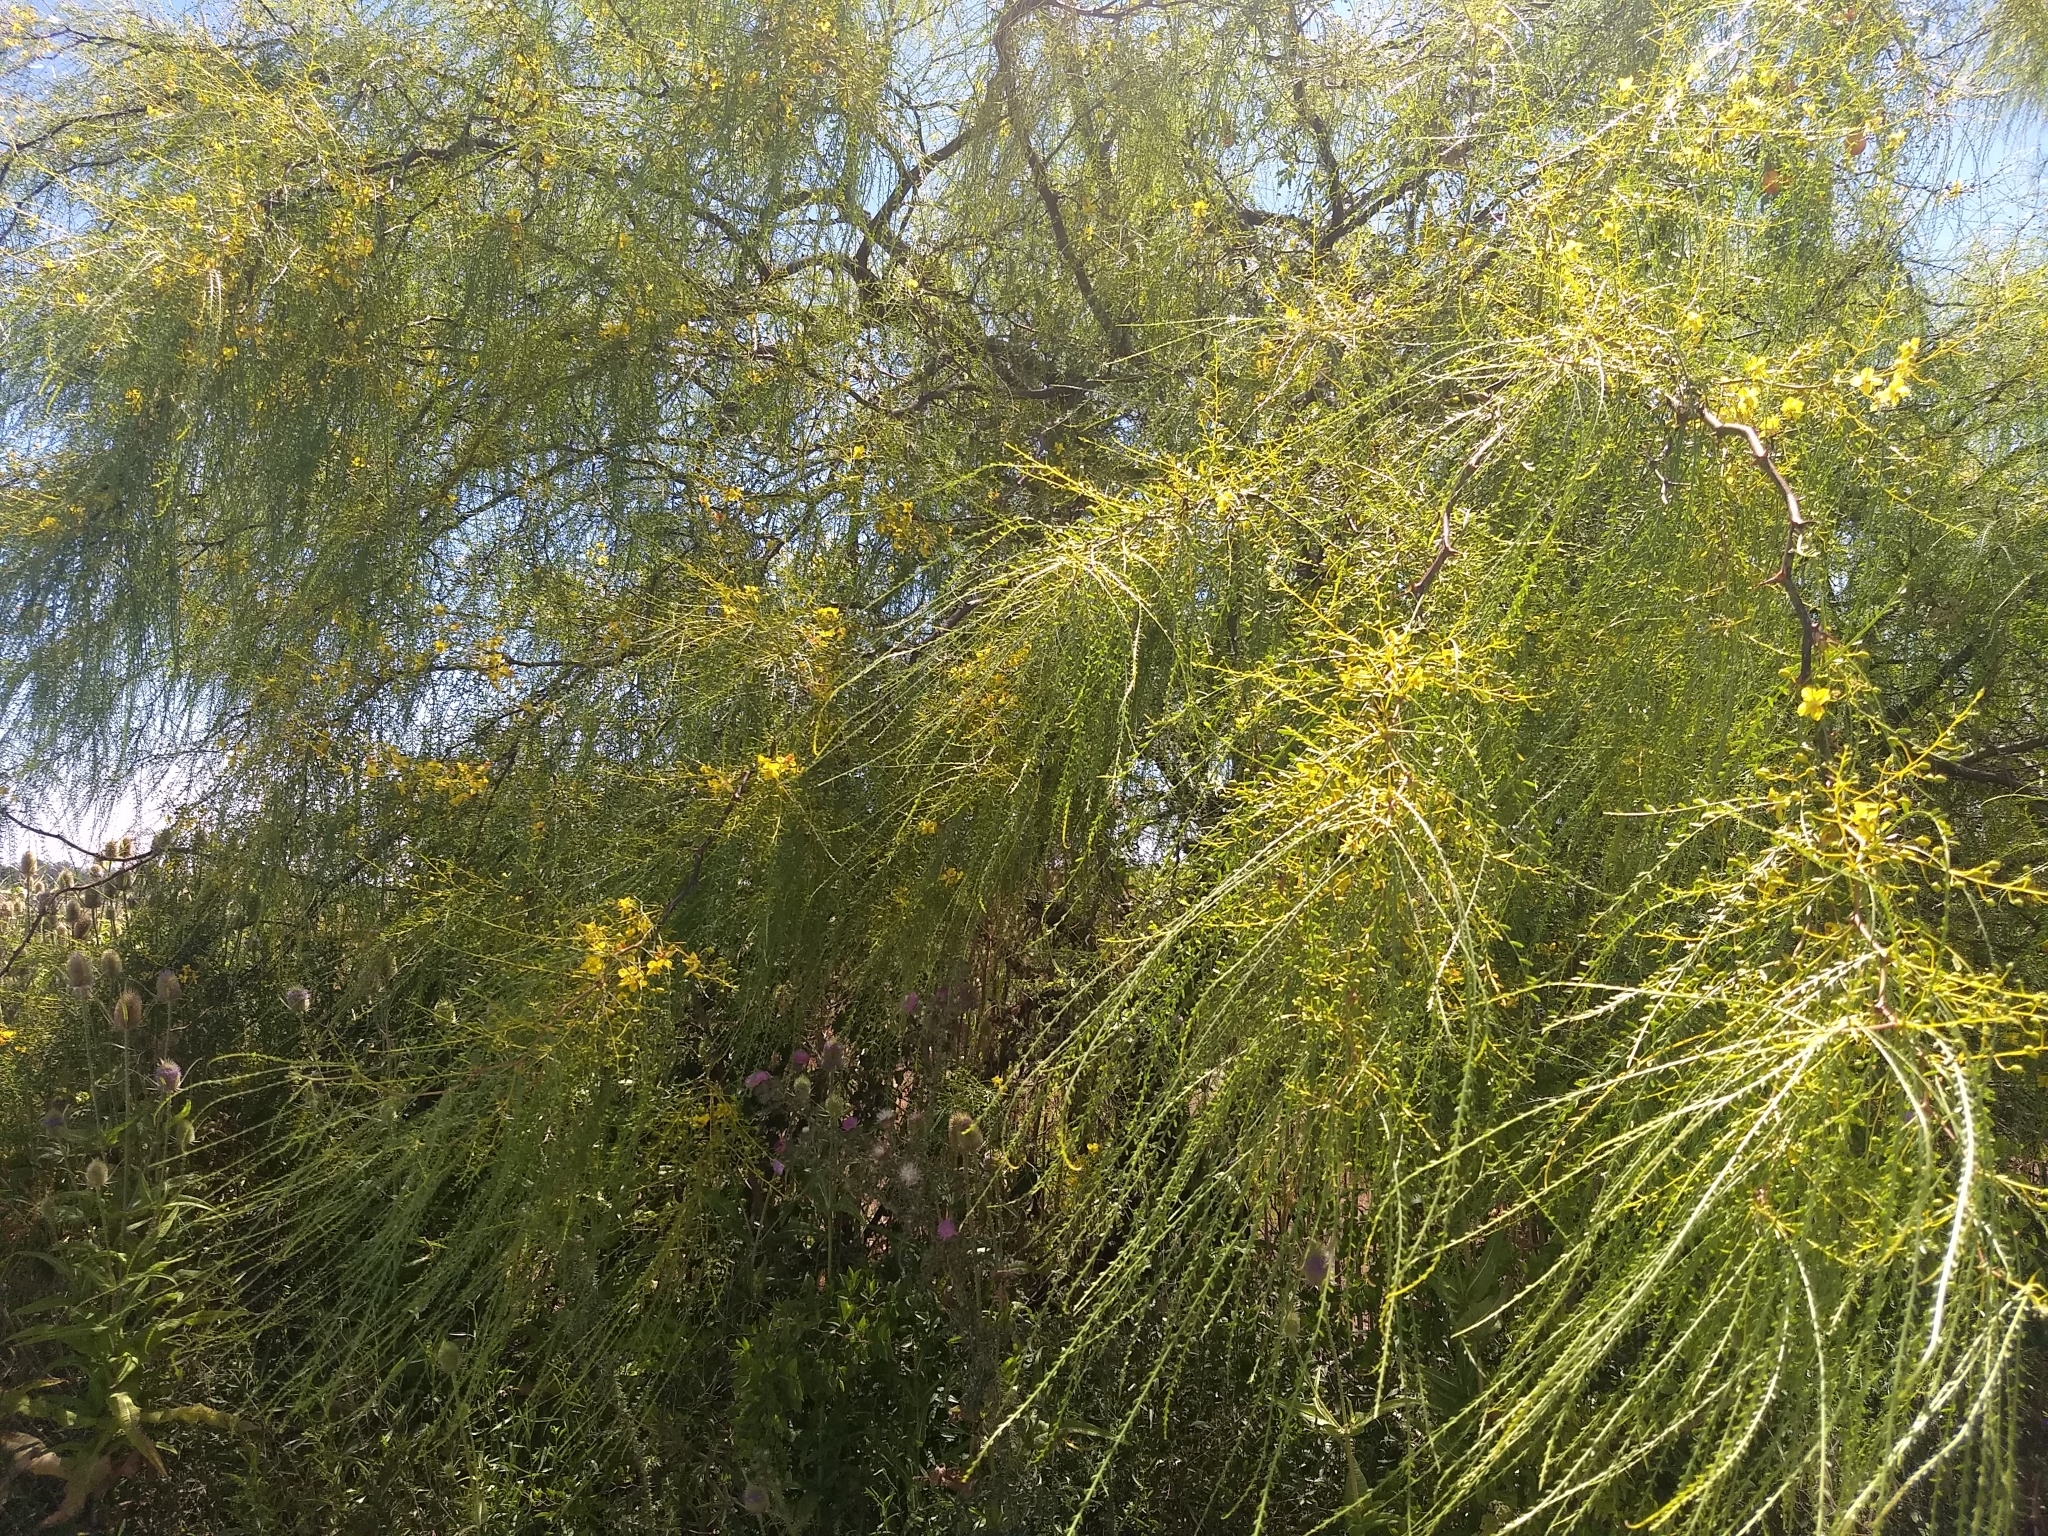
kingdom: Plantae
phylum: Tracheophyta
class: Magnoliopsida
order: Fabales
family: Fabaceae
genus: Parkinsonia
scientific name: Parkinsonia aculeata
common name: Jerusalem thorn
